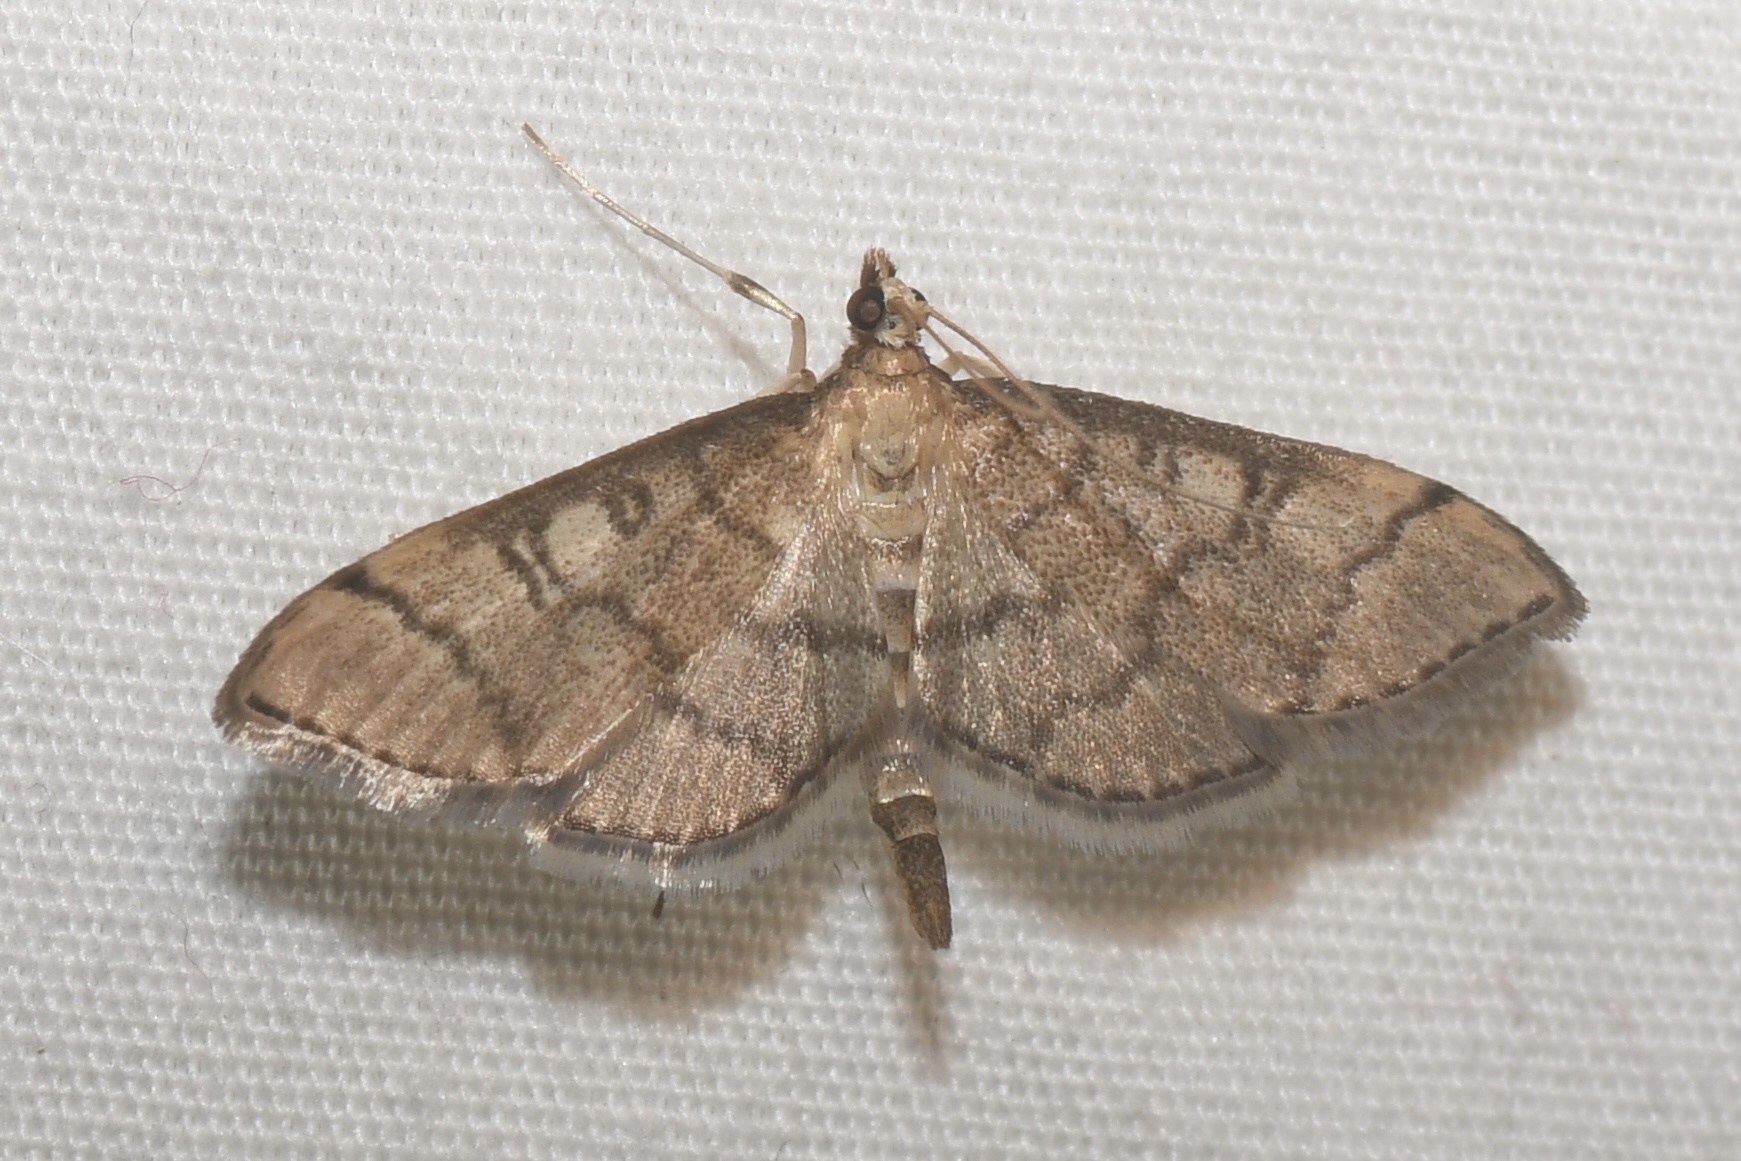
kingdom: Animalia
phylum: Arthropoda
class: Insecta
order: Lepidoptera
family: Crambidae
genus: Lamprosema
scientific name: Lamprosema Blepharomastix ranalis
